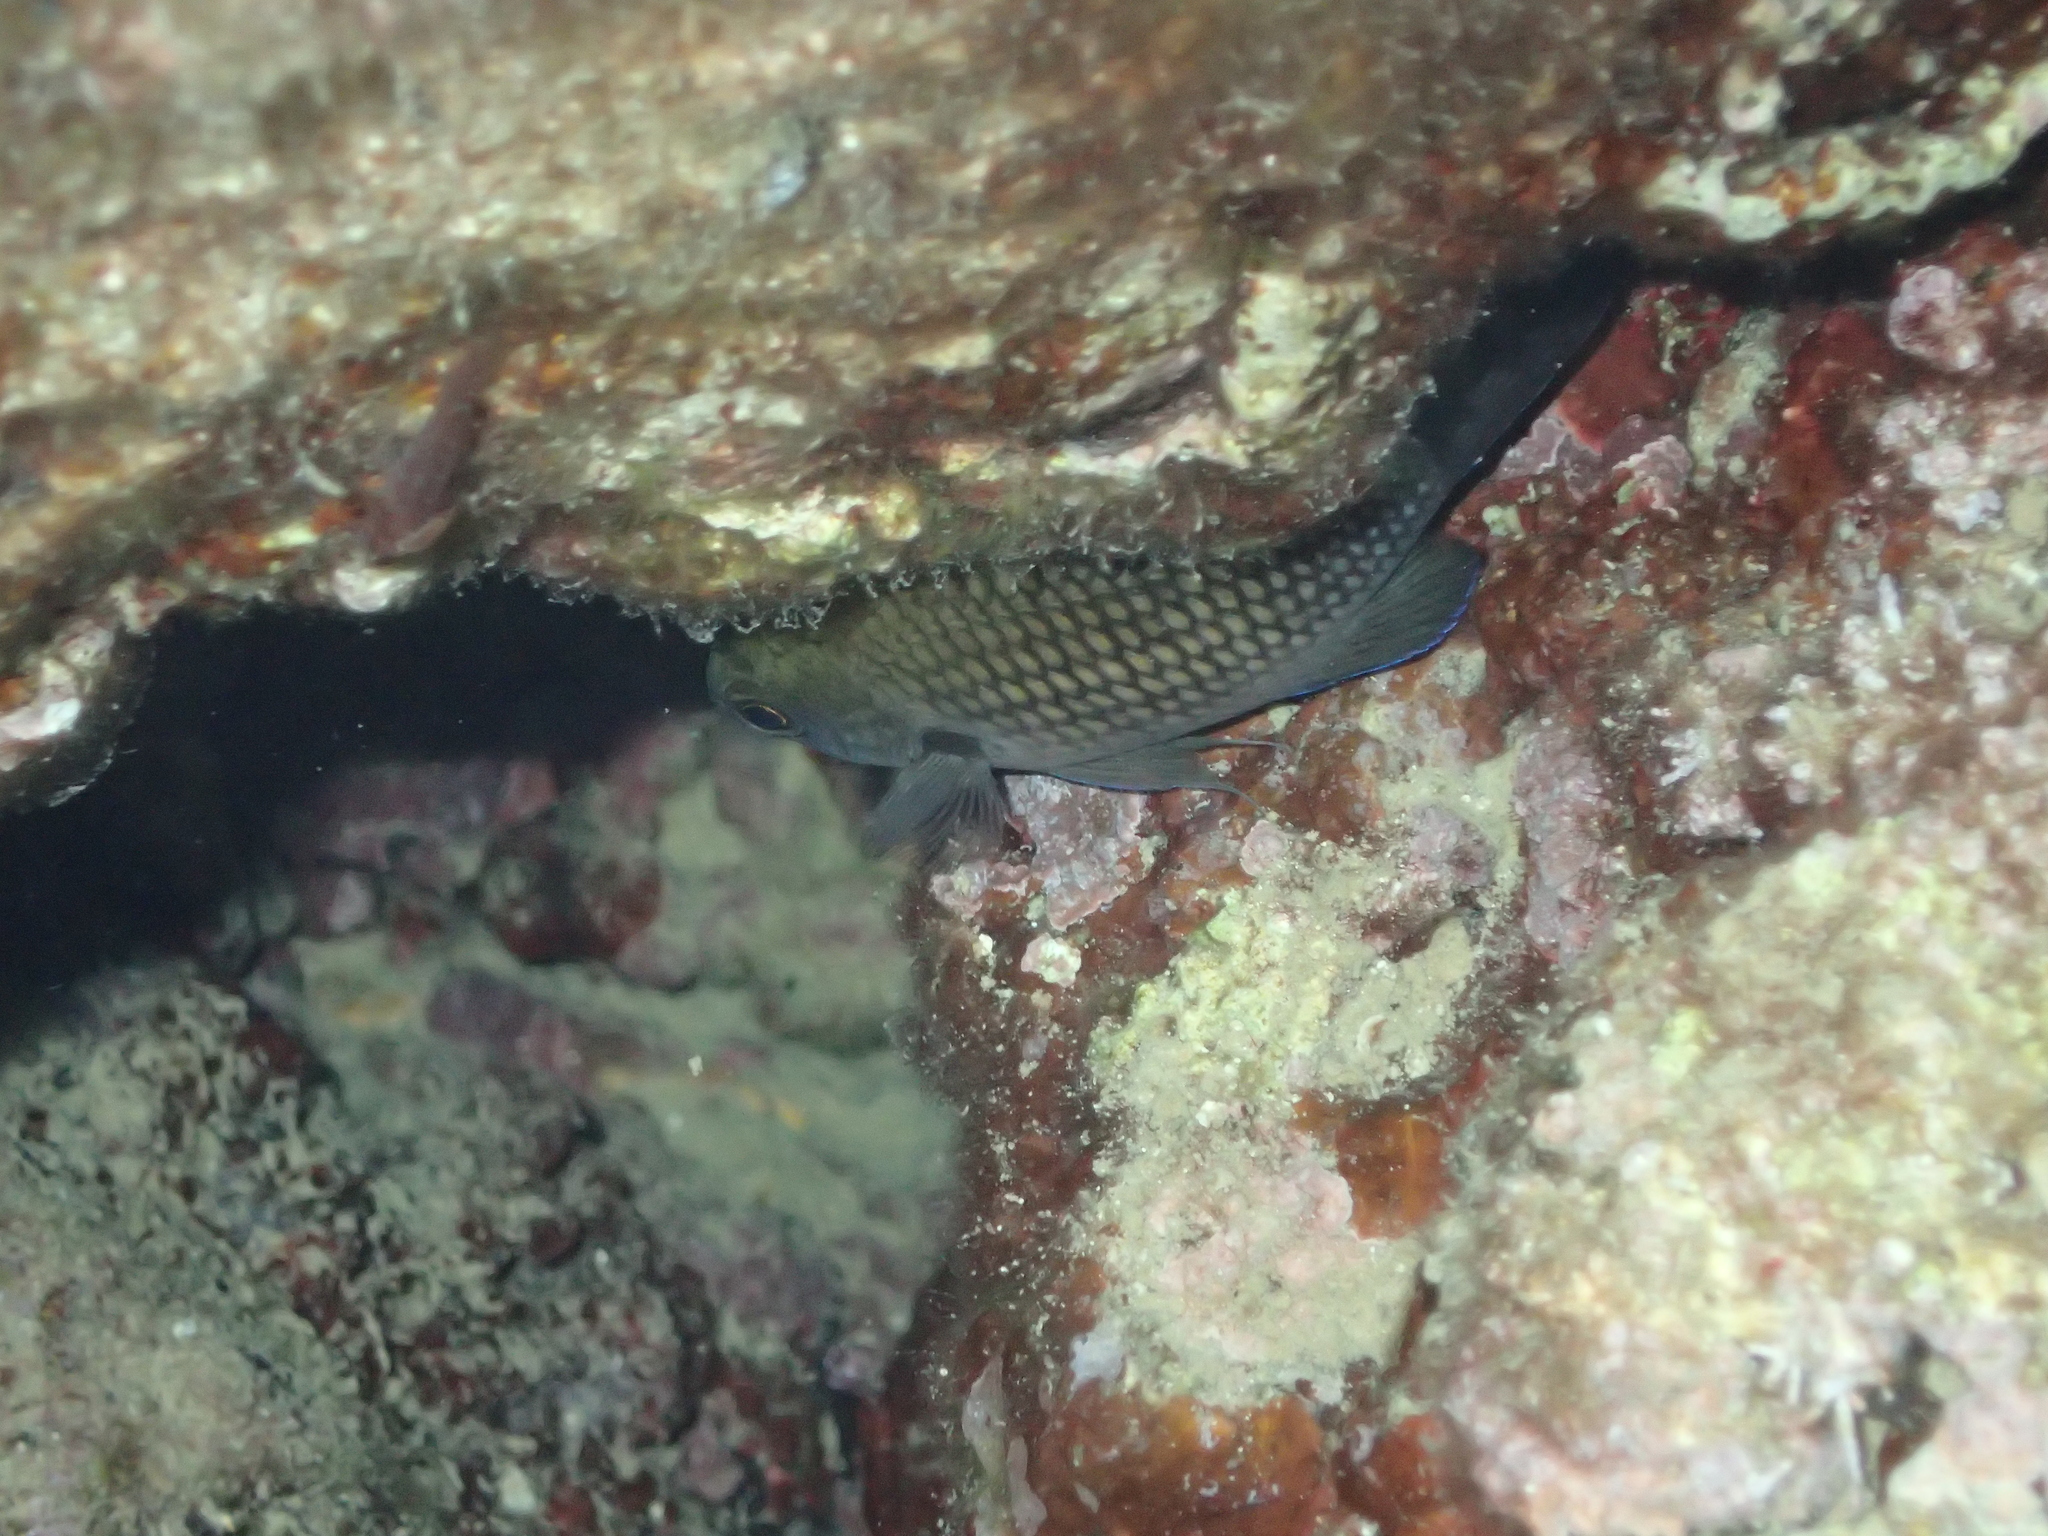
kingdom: Animalia
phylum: Chordata
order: Perciformes
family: Pomacentridae
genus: Chromis
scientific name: Chromis chromis
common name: Damselfish
